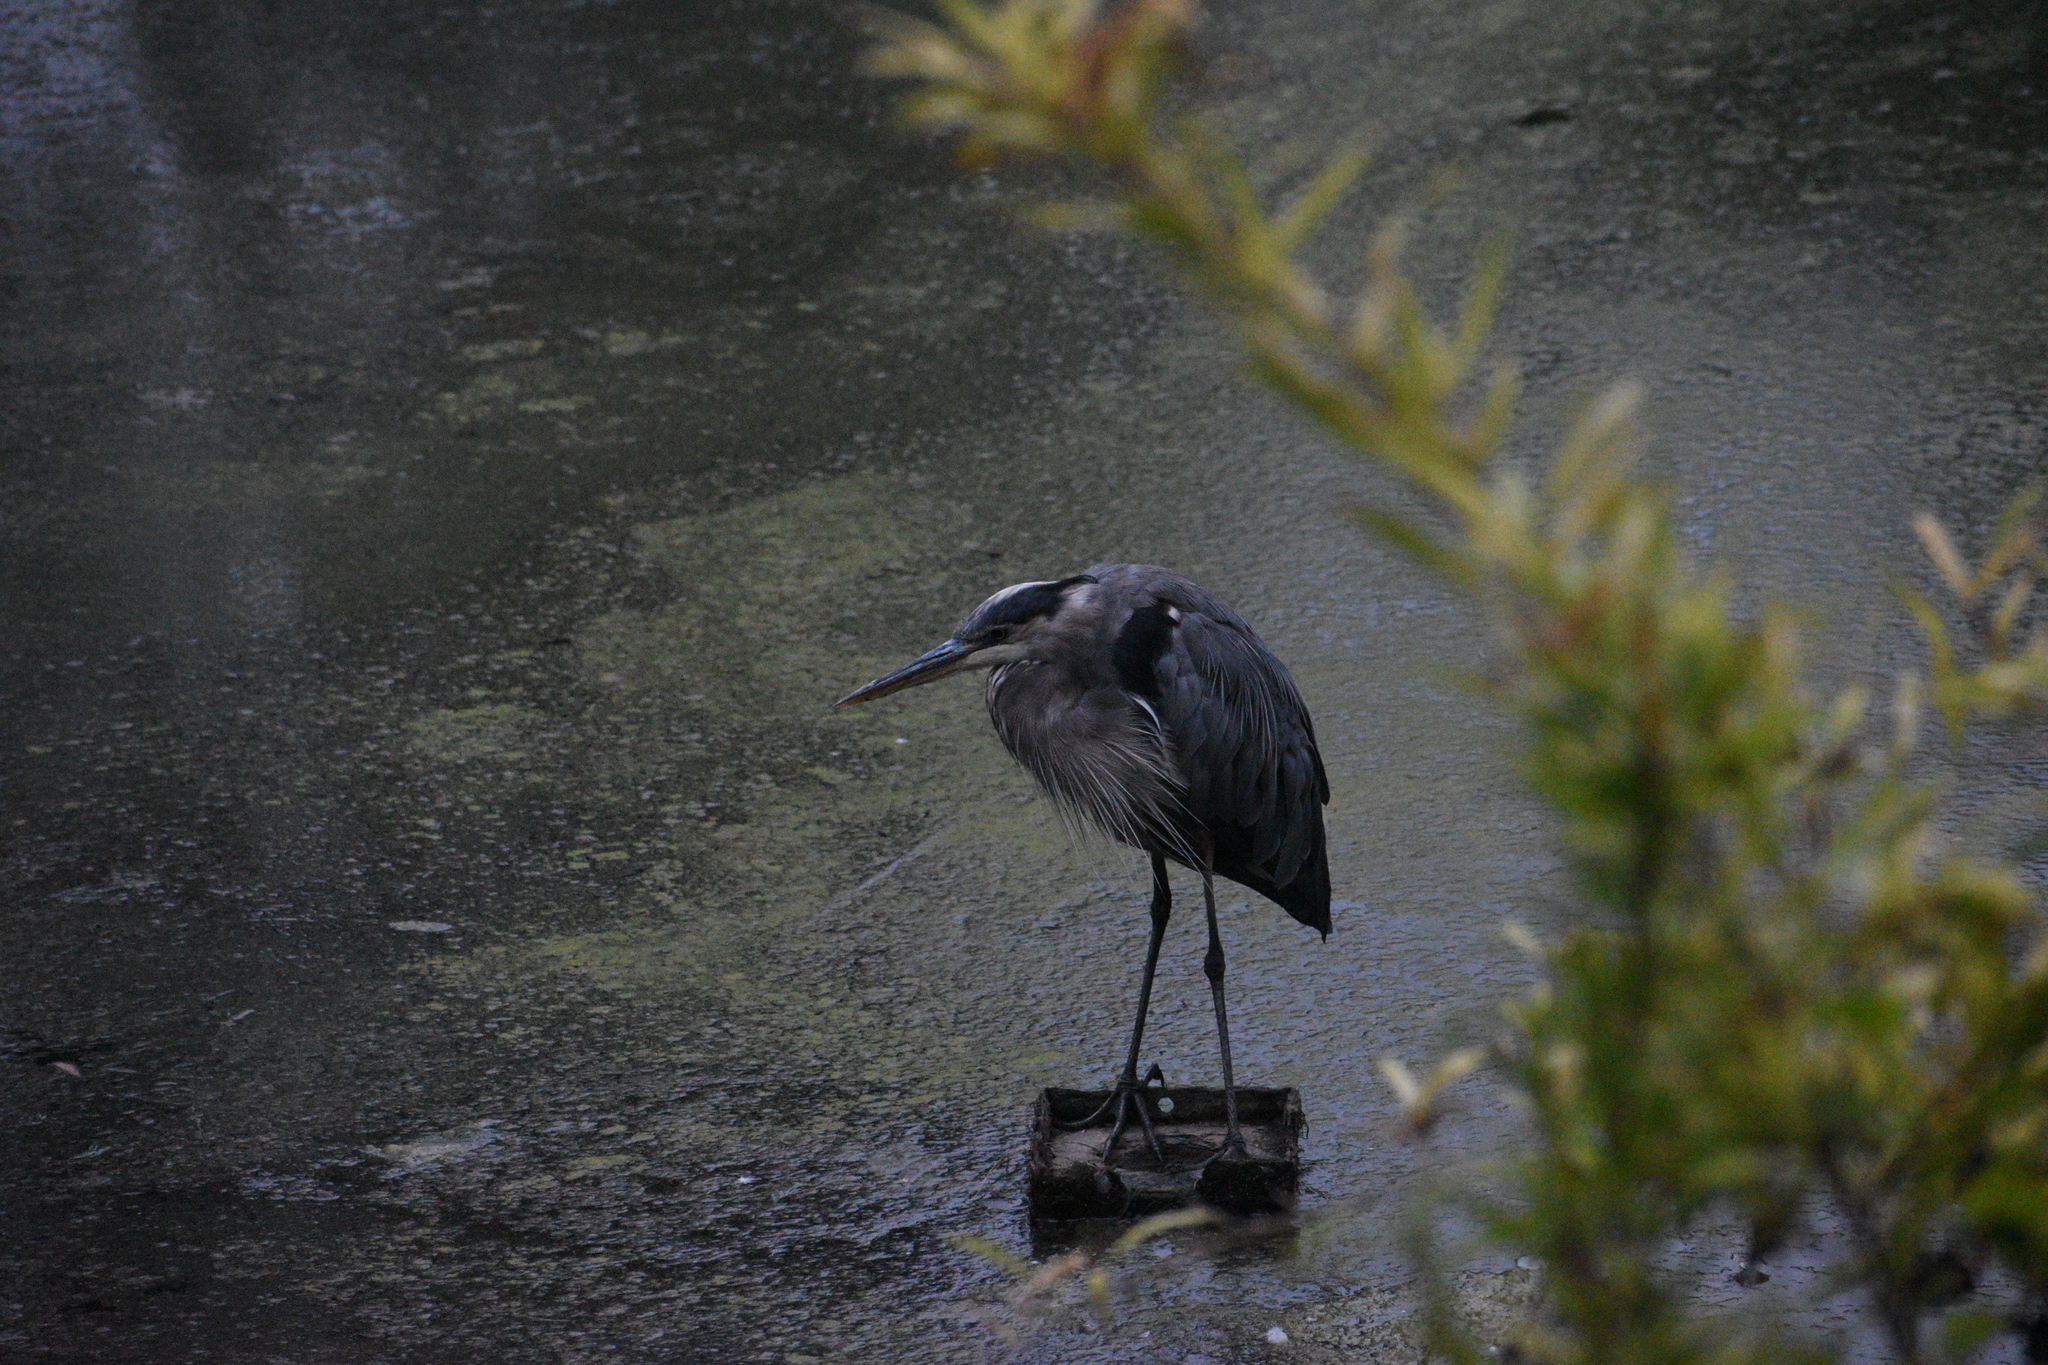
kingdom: Animalia
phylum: Chordata
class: Aves
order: Pelecaniformes
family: Ardeidae
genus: Ardea
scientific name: Ardea herodias
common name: Great blue heron
